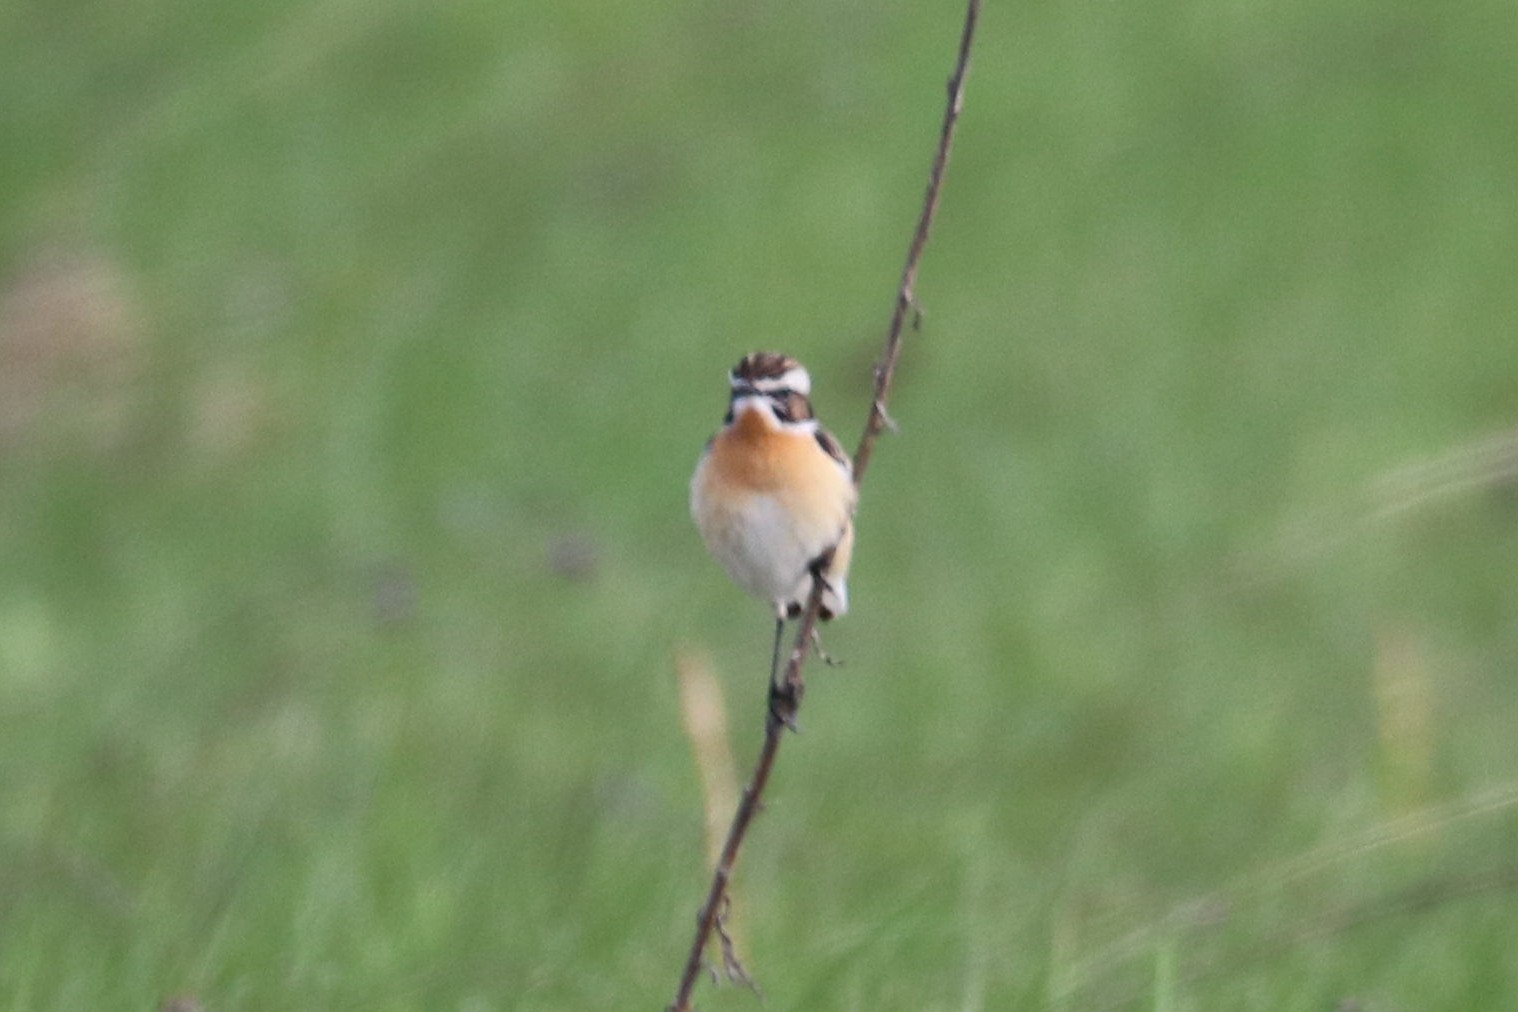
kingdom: Animalia
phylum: Chordata
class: Aves
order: Passeriformes
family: Muscicapidae
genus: Saxicola
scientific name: Saxicola rubetra
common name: Whinchat
